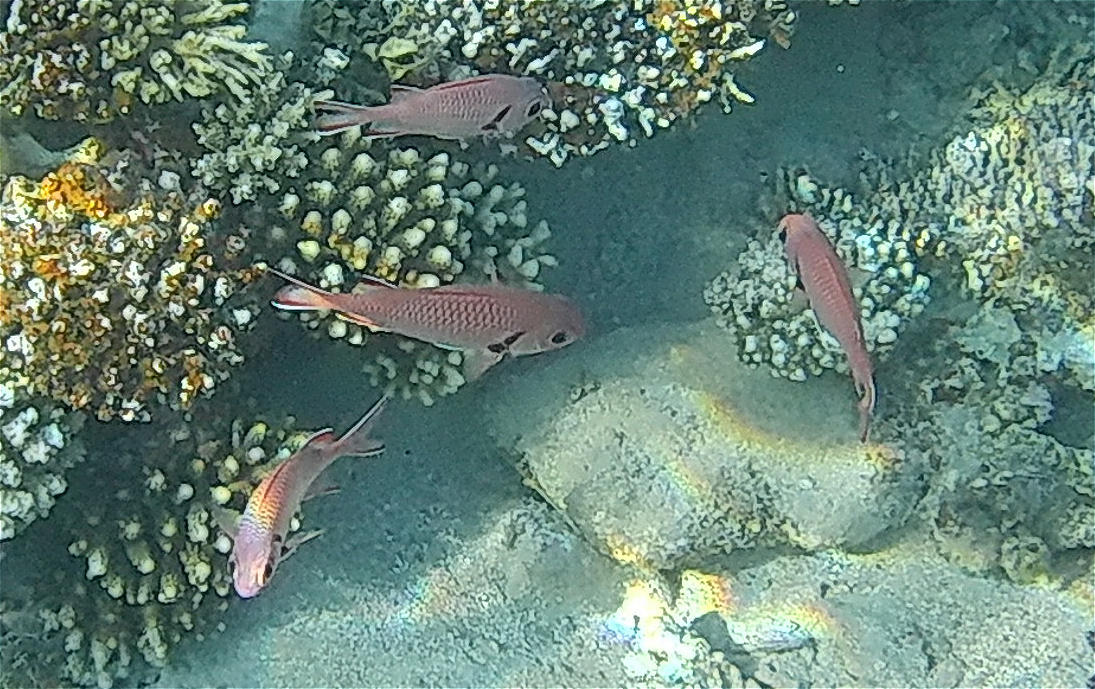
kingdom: Animalia
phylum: Chordata
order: Beryciformes
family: Holocentridae
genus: Myripristis
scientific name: Myripristis murdjan
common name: Big-eye soldierfish
